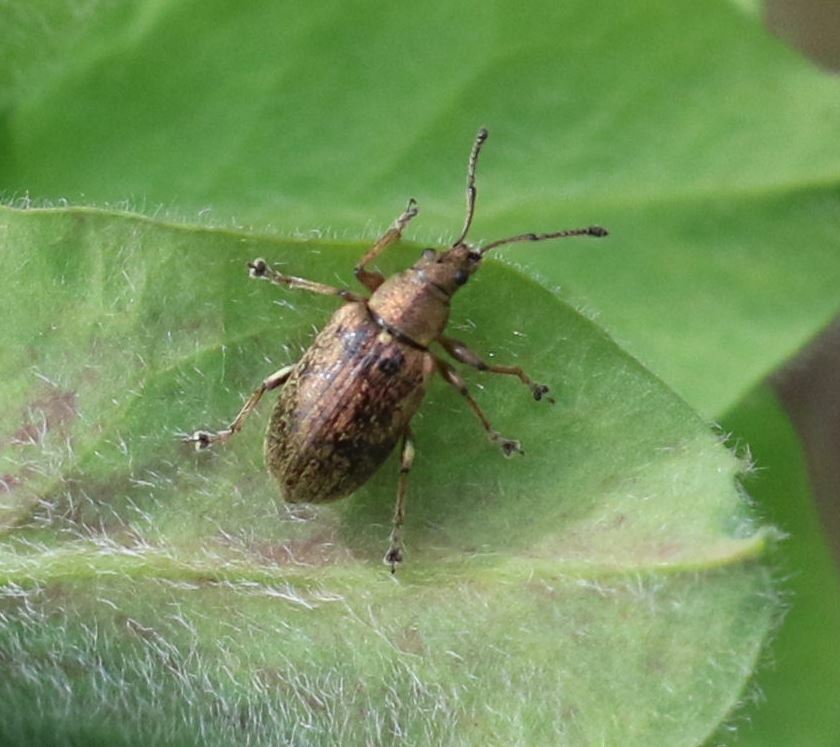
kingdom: Animalia
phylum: Arthropoda
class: Insecta
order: Coleoptera
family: Curculionidae
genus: Phyllobius
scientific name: Phyllobius pyri
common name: Common leaf weevil
